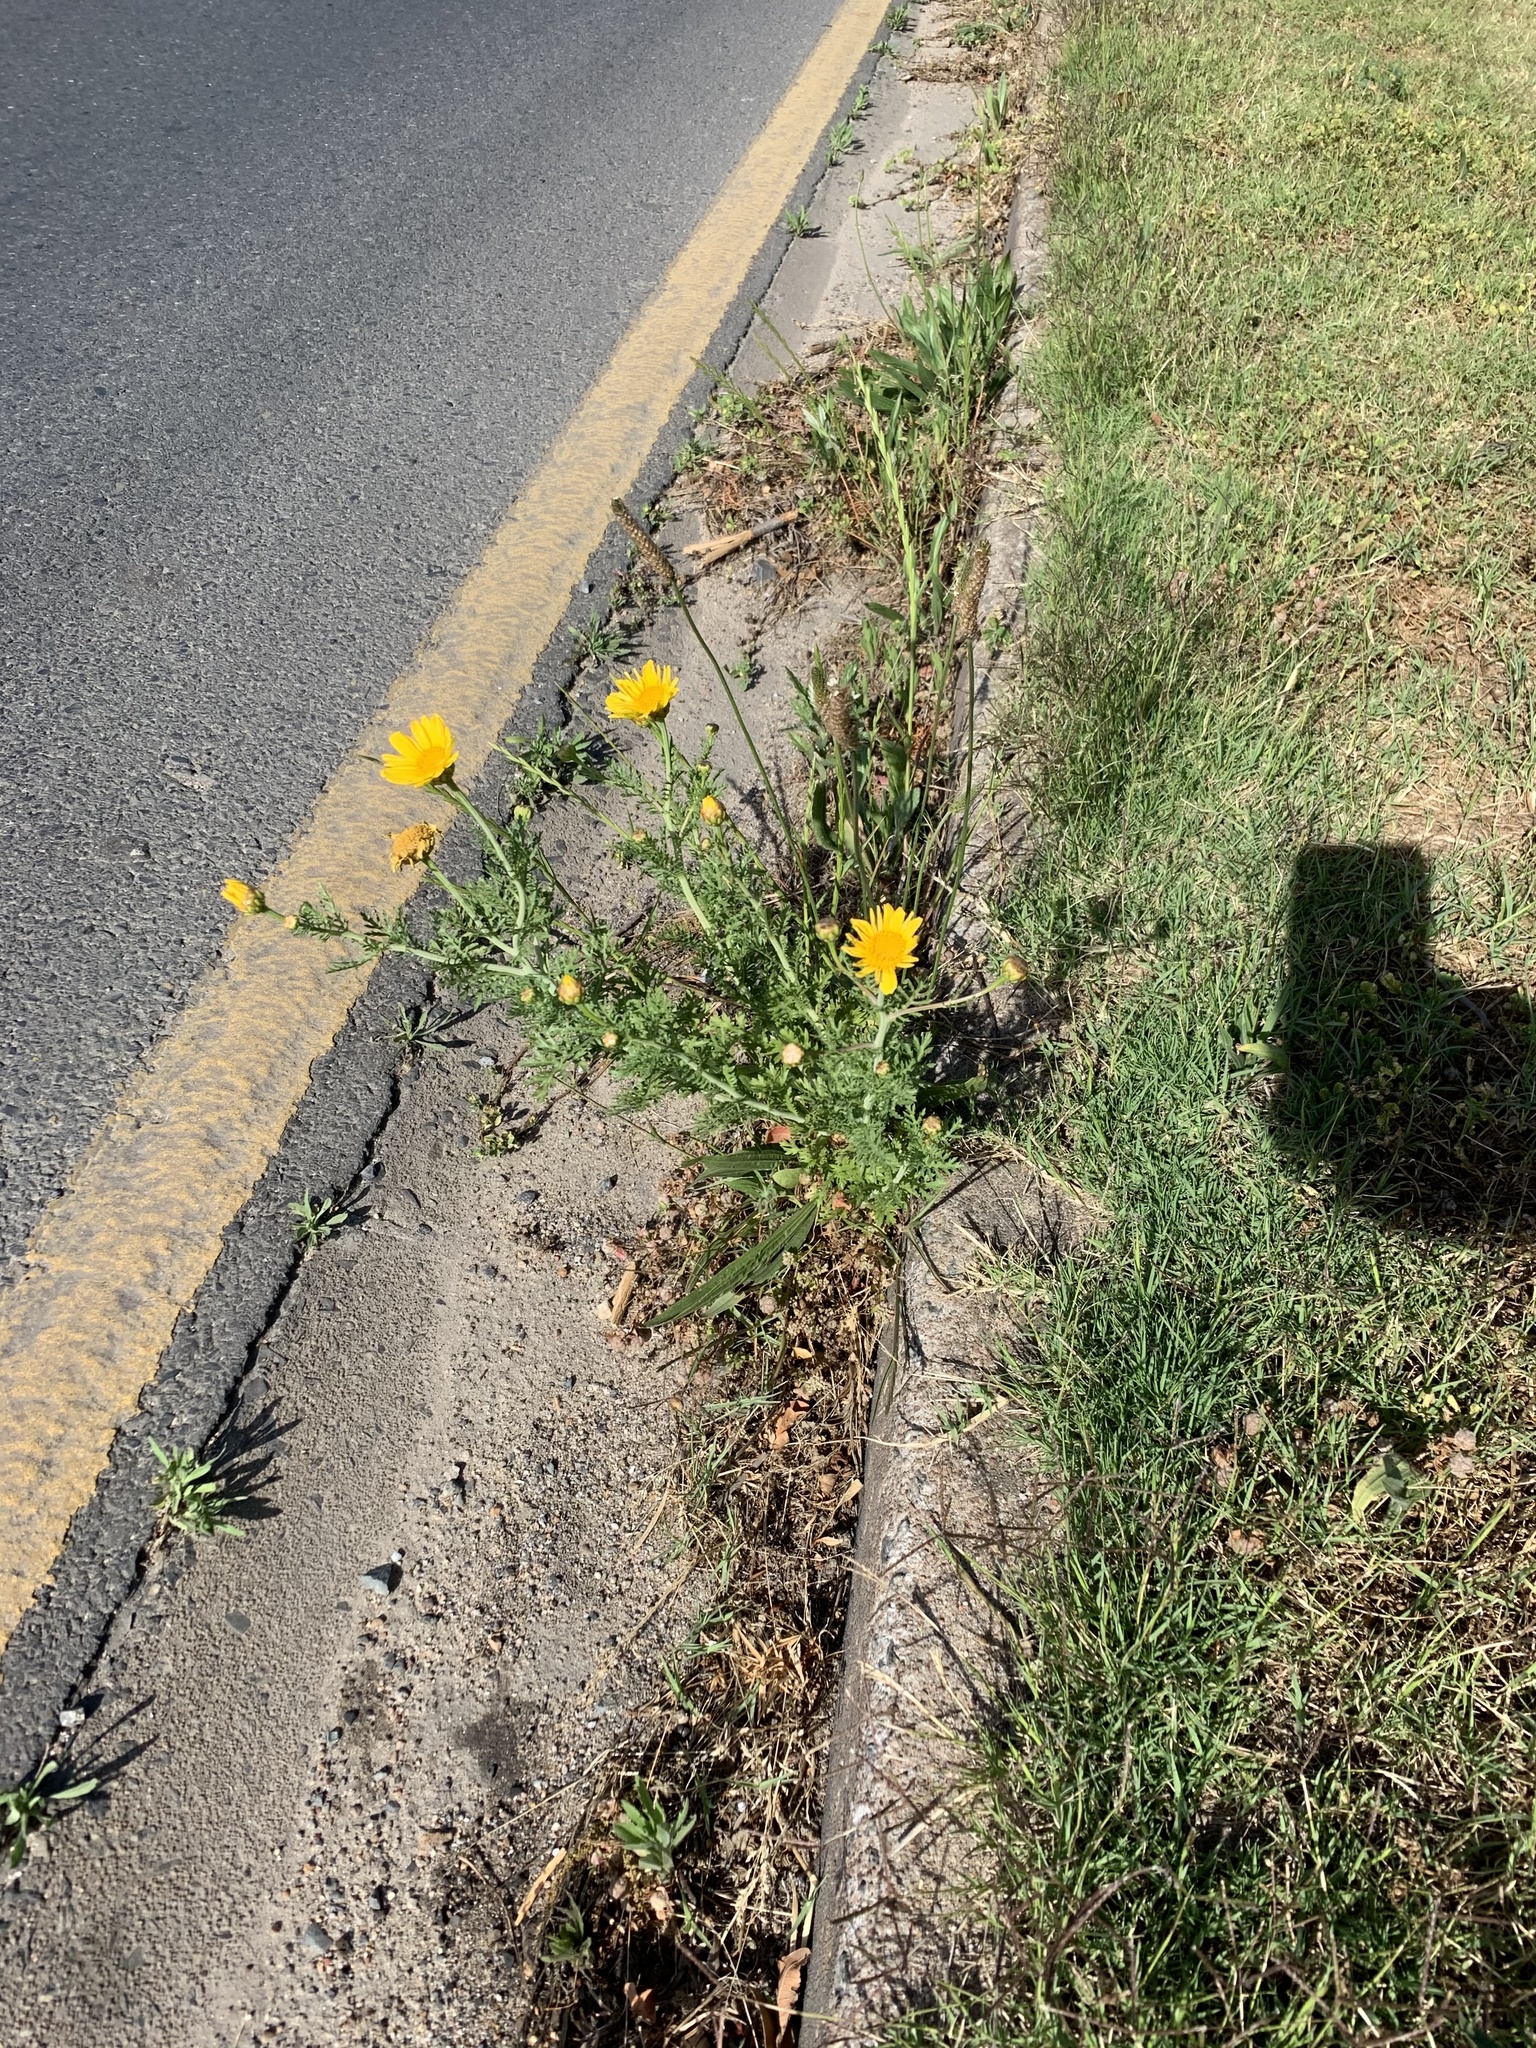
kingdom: Plantae
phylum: Tracheophyta
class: Magnoliopsida
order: Asterales
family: Asteraceae
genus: Glebionis
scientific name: Glebionis coronaria
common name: Crowndaisy
